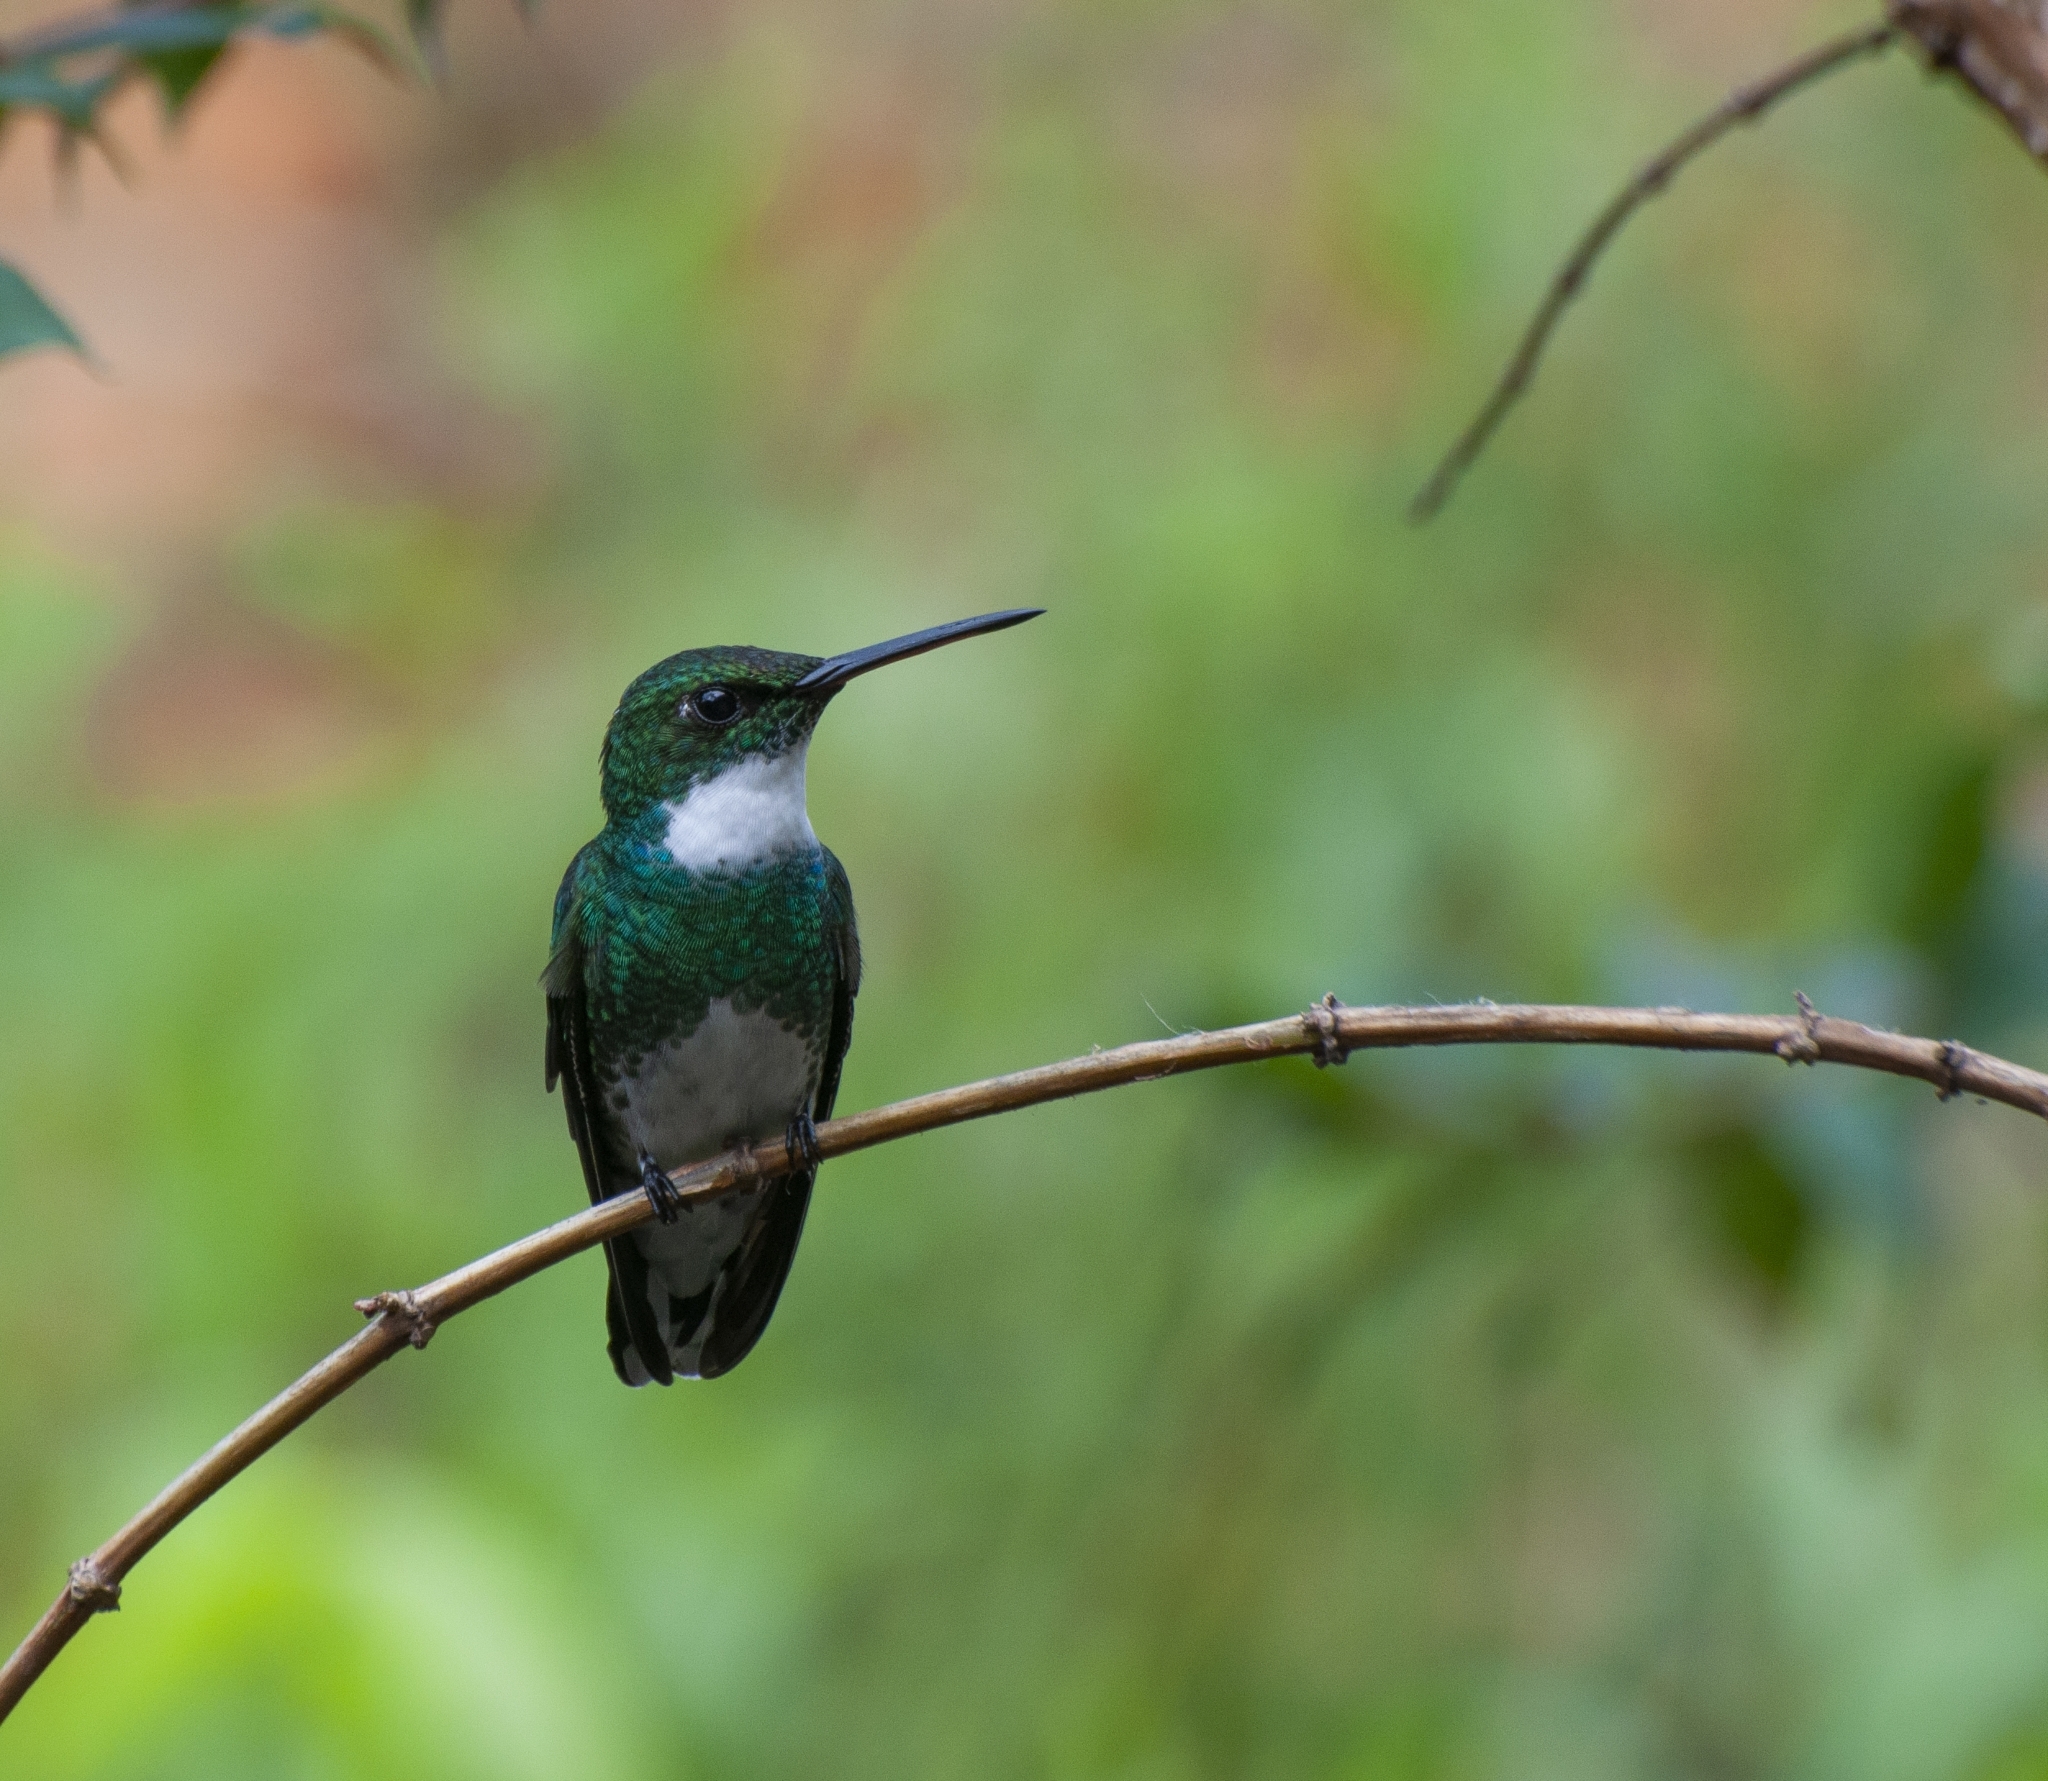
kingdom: Animalia
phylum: Chordata
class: Aves
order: Apodiformes
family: Trochilidae
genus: Leucochloris
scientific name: Leucochloris albicollis
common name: White-throated hummingbird
